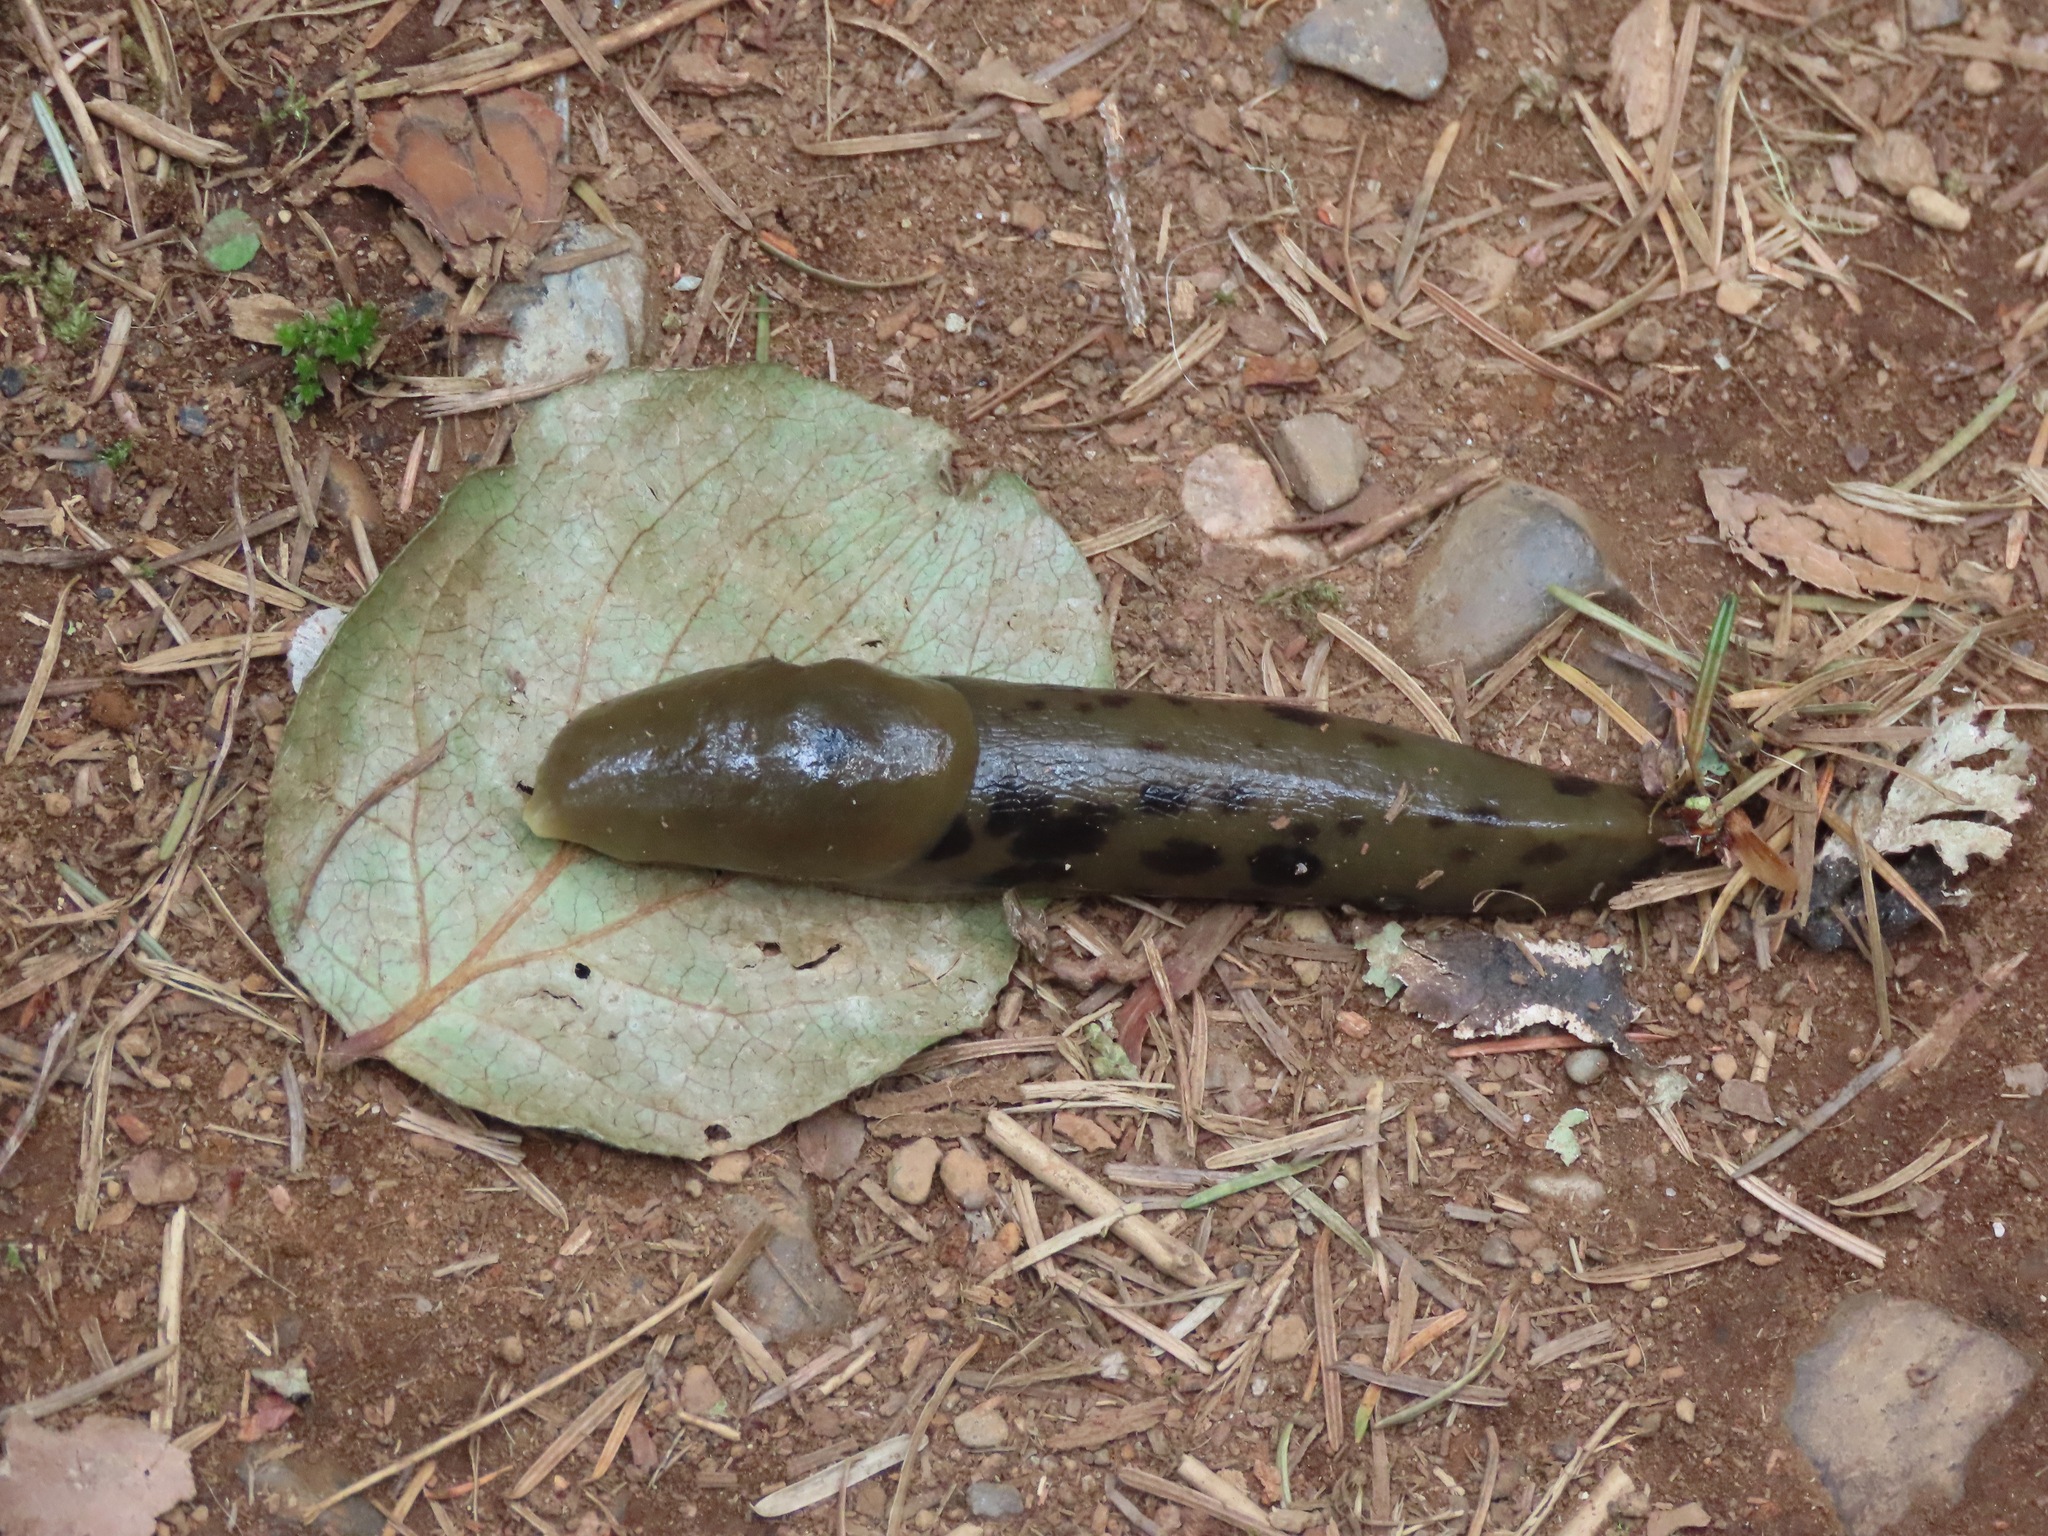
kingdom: Animalia
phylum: Mollusca
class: Gastropoda
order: Stylommatophora
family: Ariolimacidae
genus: Ariolimax
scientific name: Ariolimax columbianus
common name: Pacific banana slug
